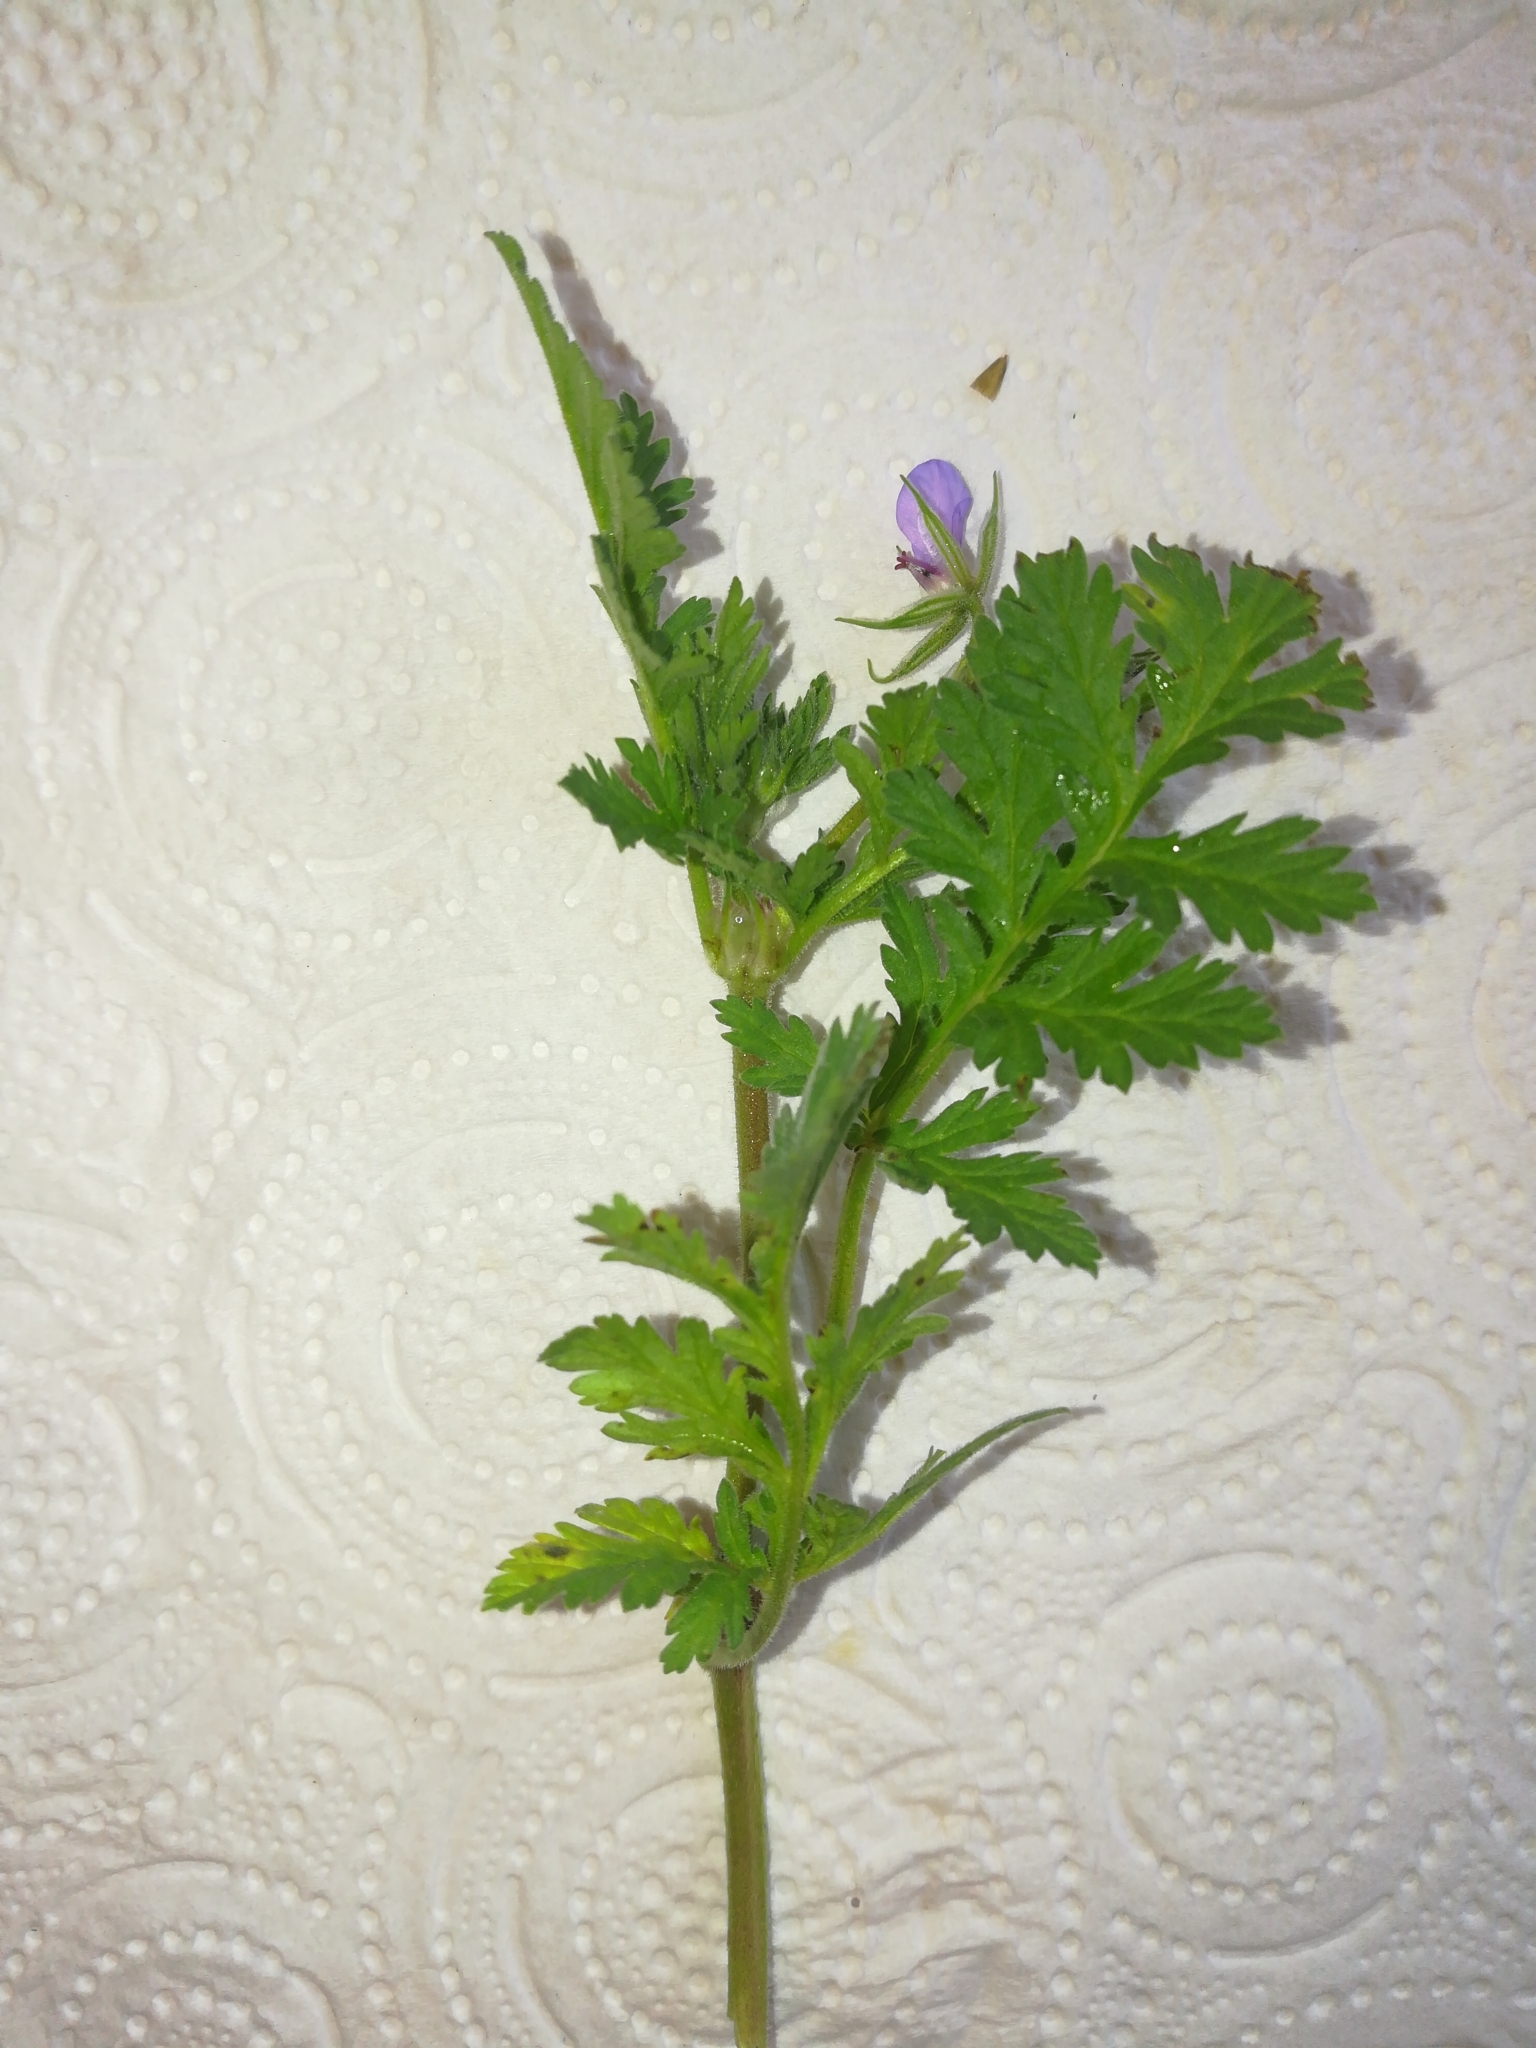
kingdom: Plantae
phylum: Tracheophyta
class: Magnoliopsida
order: Geraniales
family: Geraniaceae
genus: Erodium
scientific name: Erodium ciconium
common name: Common stork's bill
